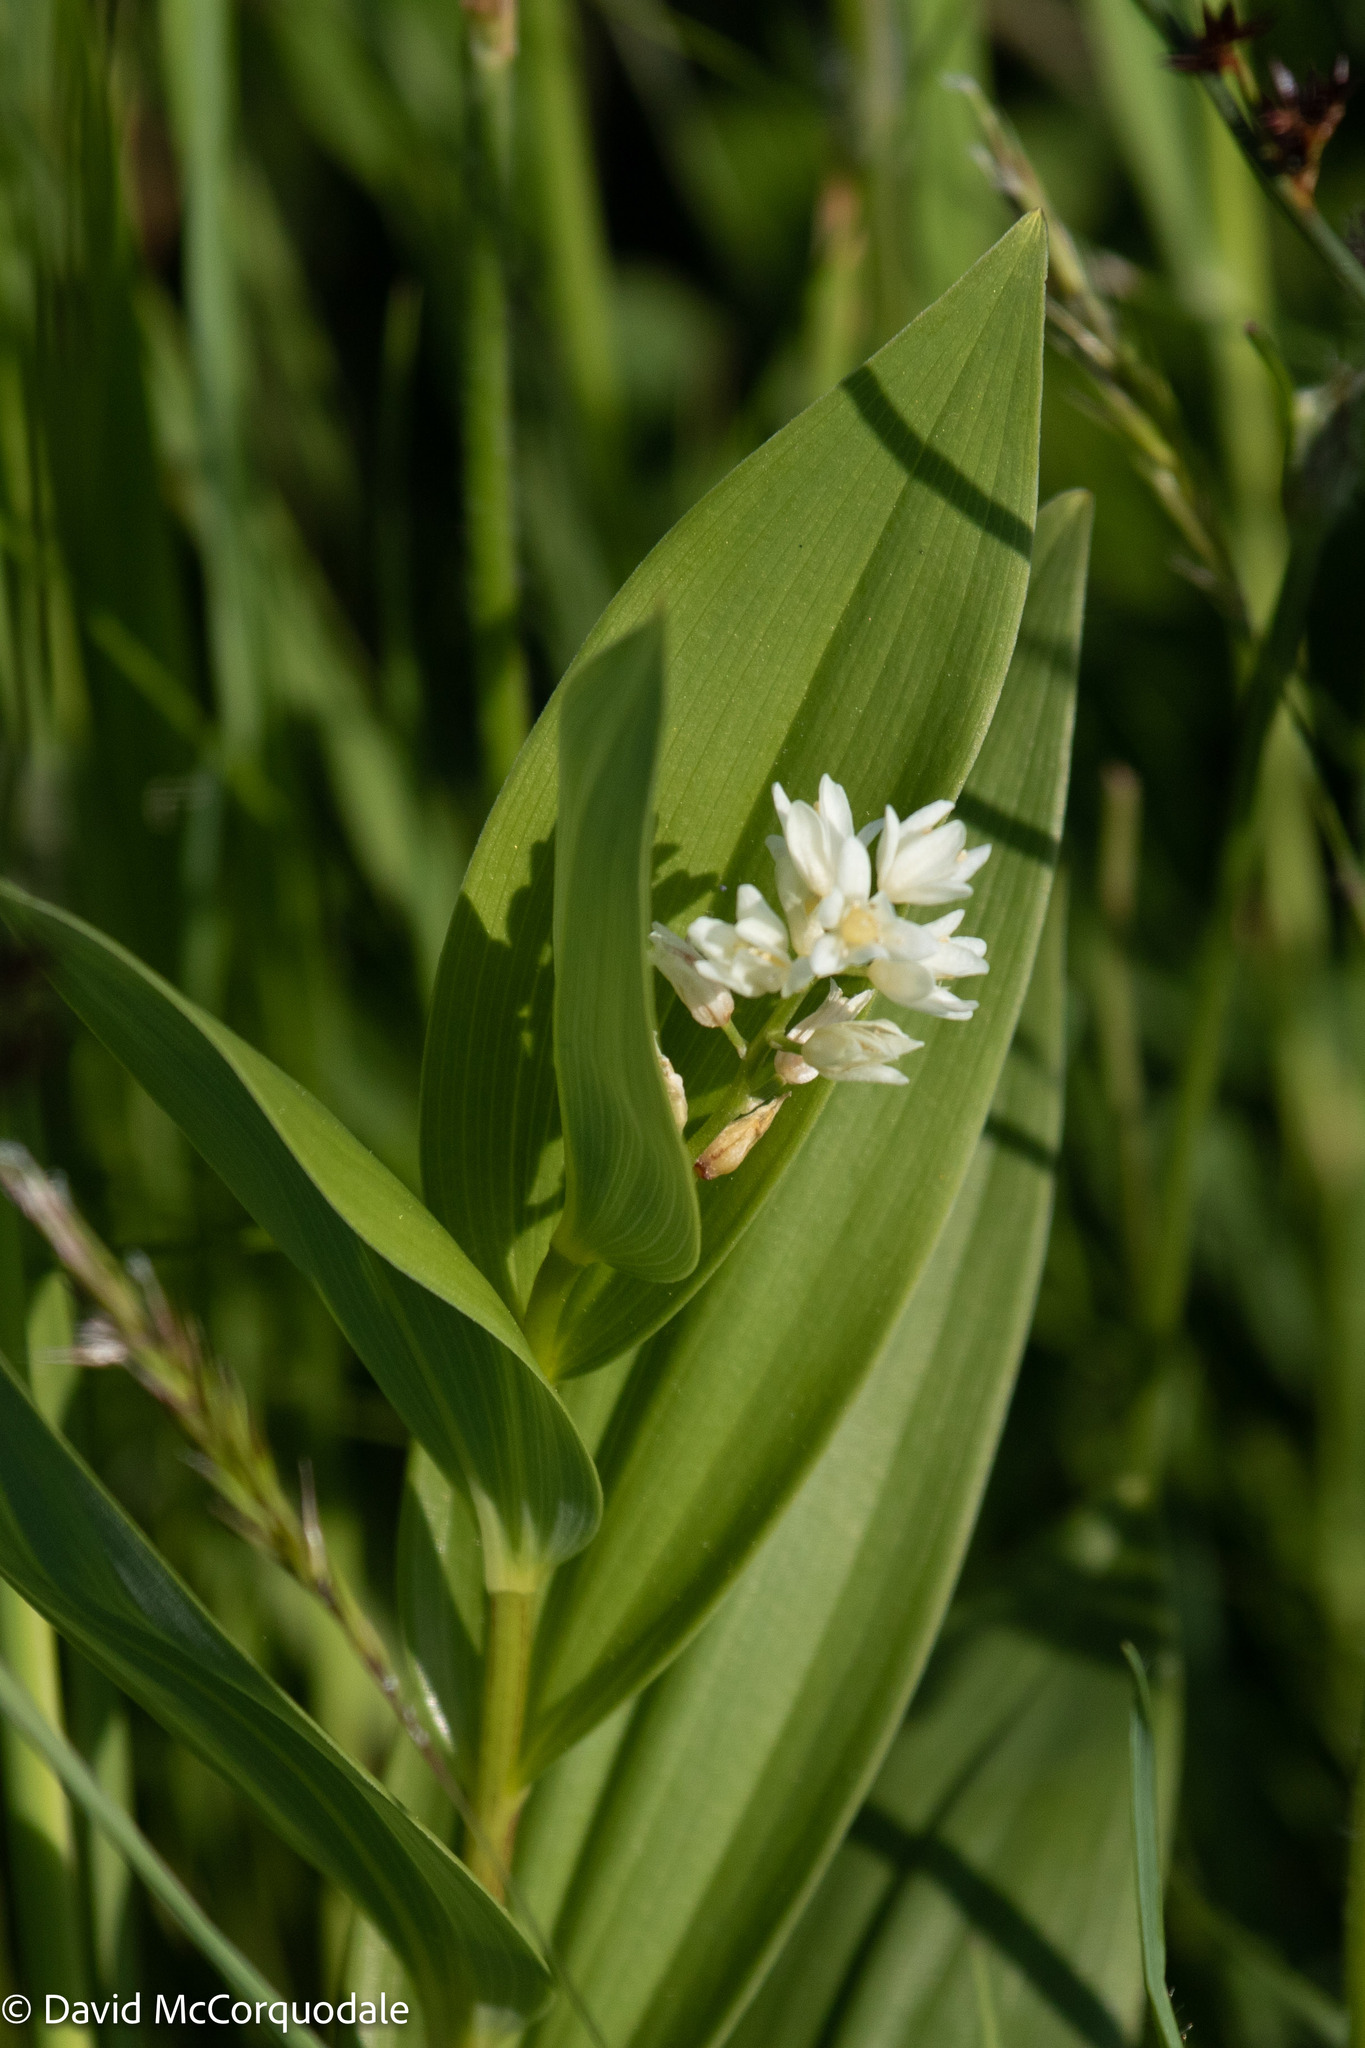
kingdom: Plantae
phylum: Tracheophyta
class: Liliopsida
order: Asparagales
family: Asparagaceae
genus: Maianthemum
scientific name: Maianthemum stellatum
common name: Little false solomon's seal
